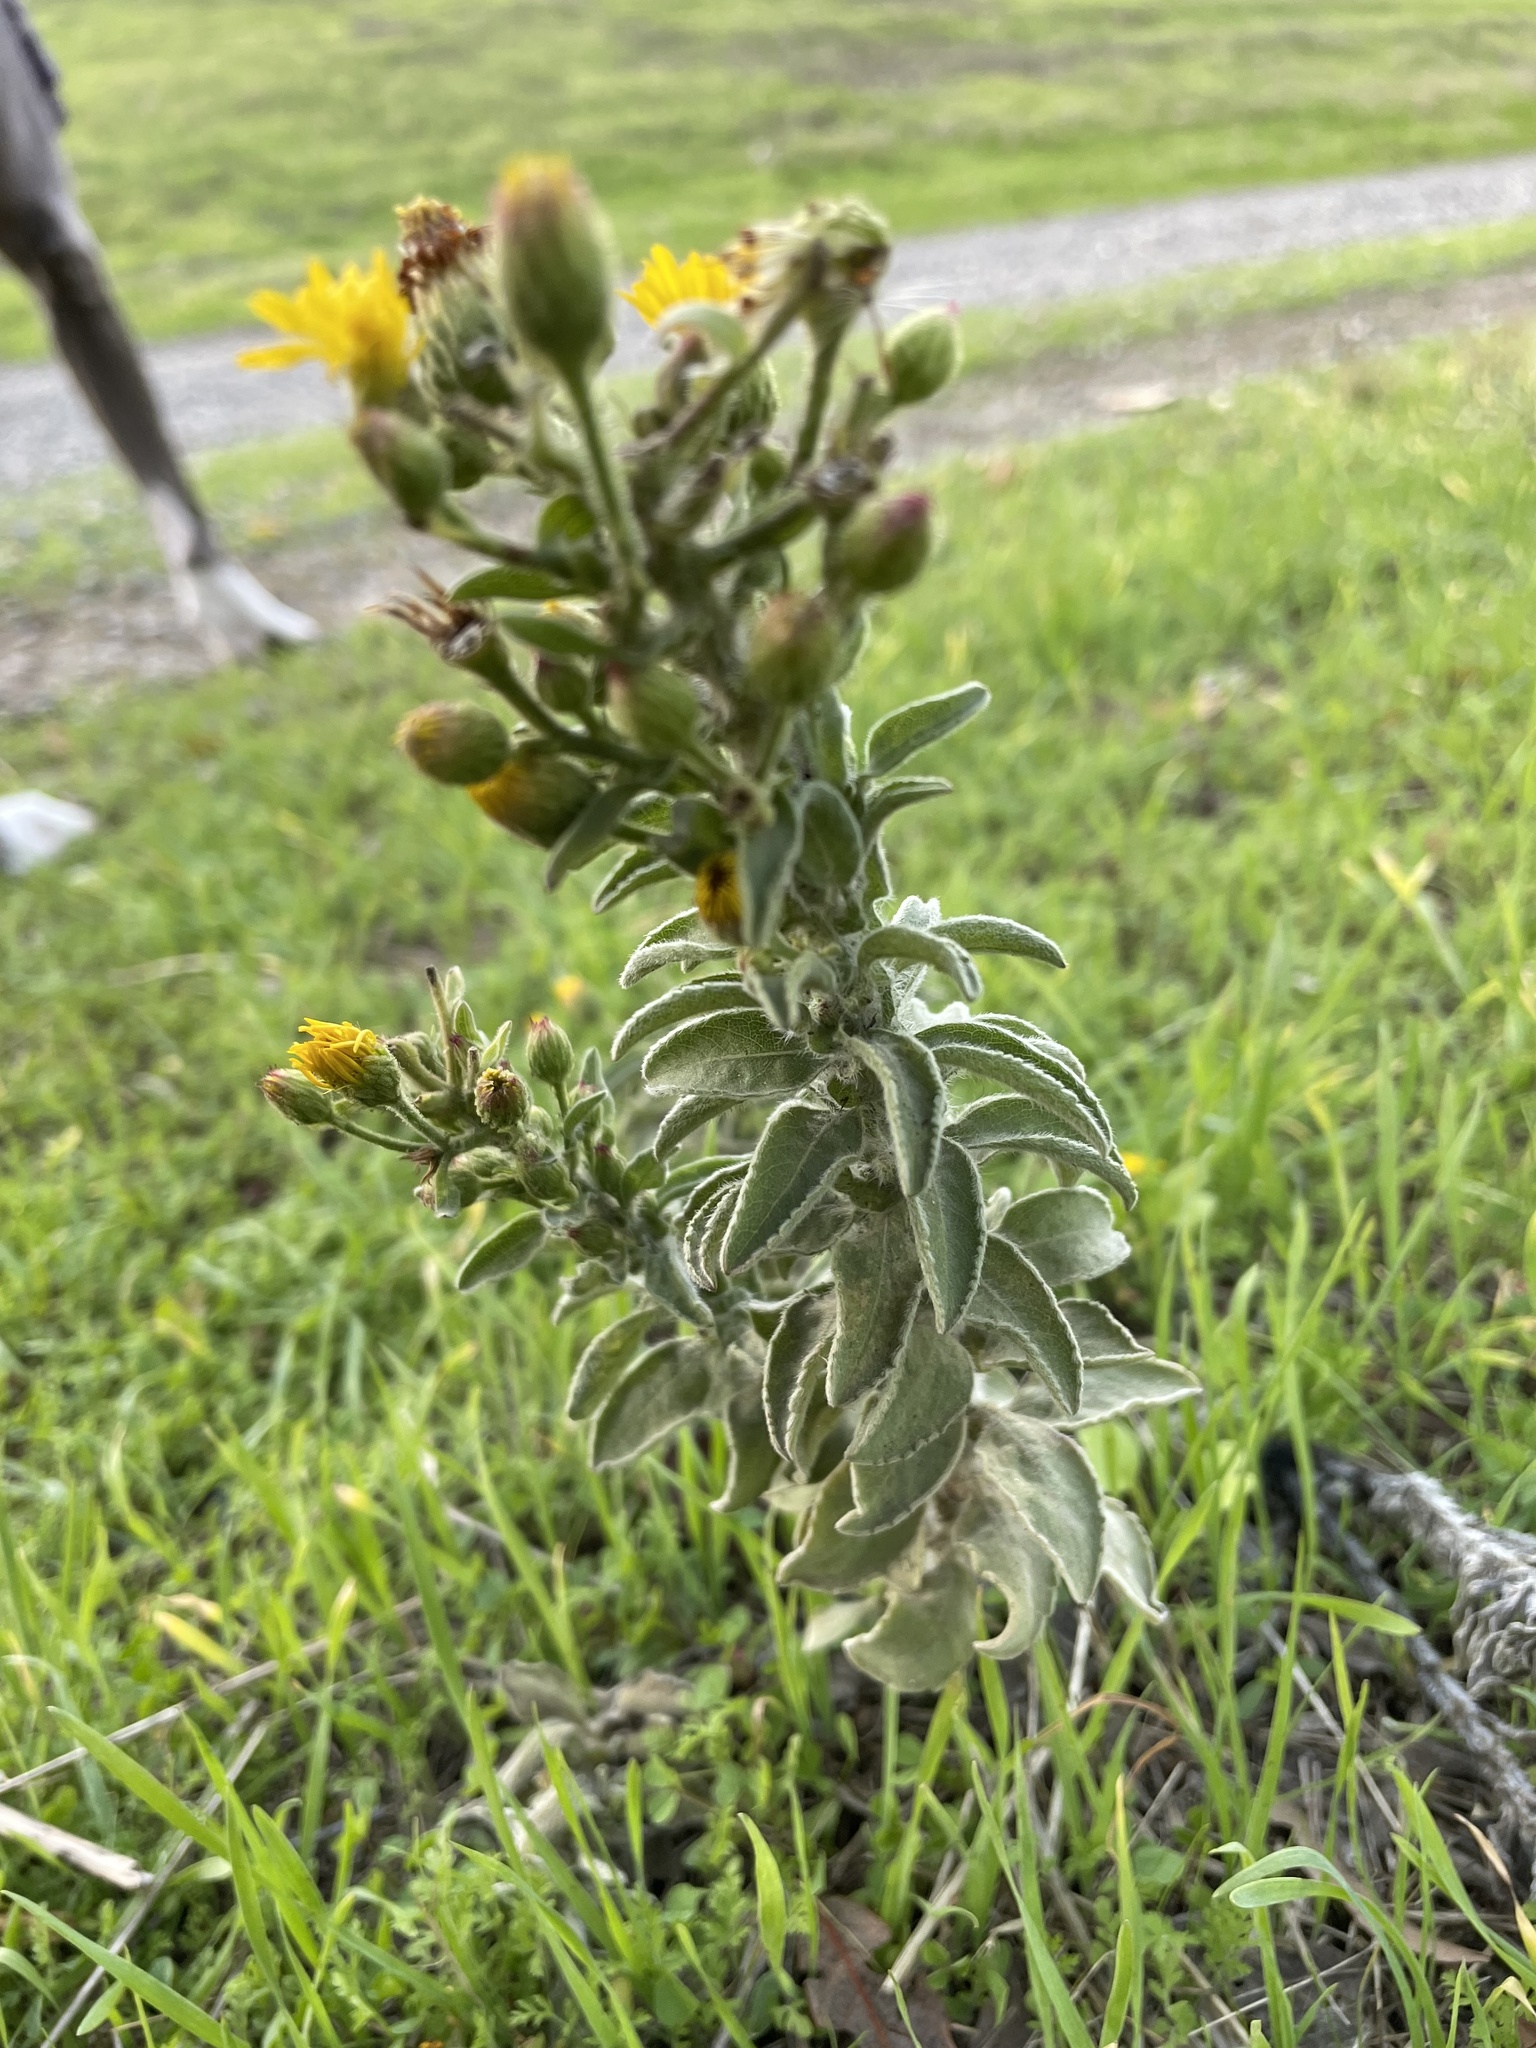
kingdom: Plantae
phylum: Tracheophyta
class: Magnoliopsida
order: Asterales
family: Asteraceae
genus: Heterotheca
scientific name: Heterotheca grandiflora
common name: Telegraphweed
